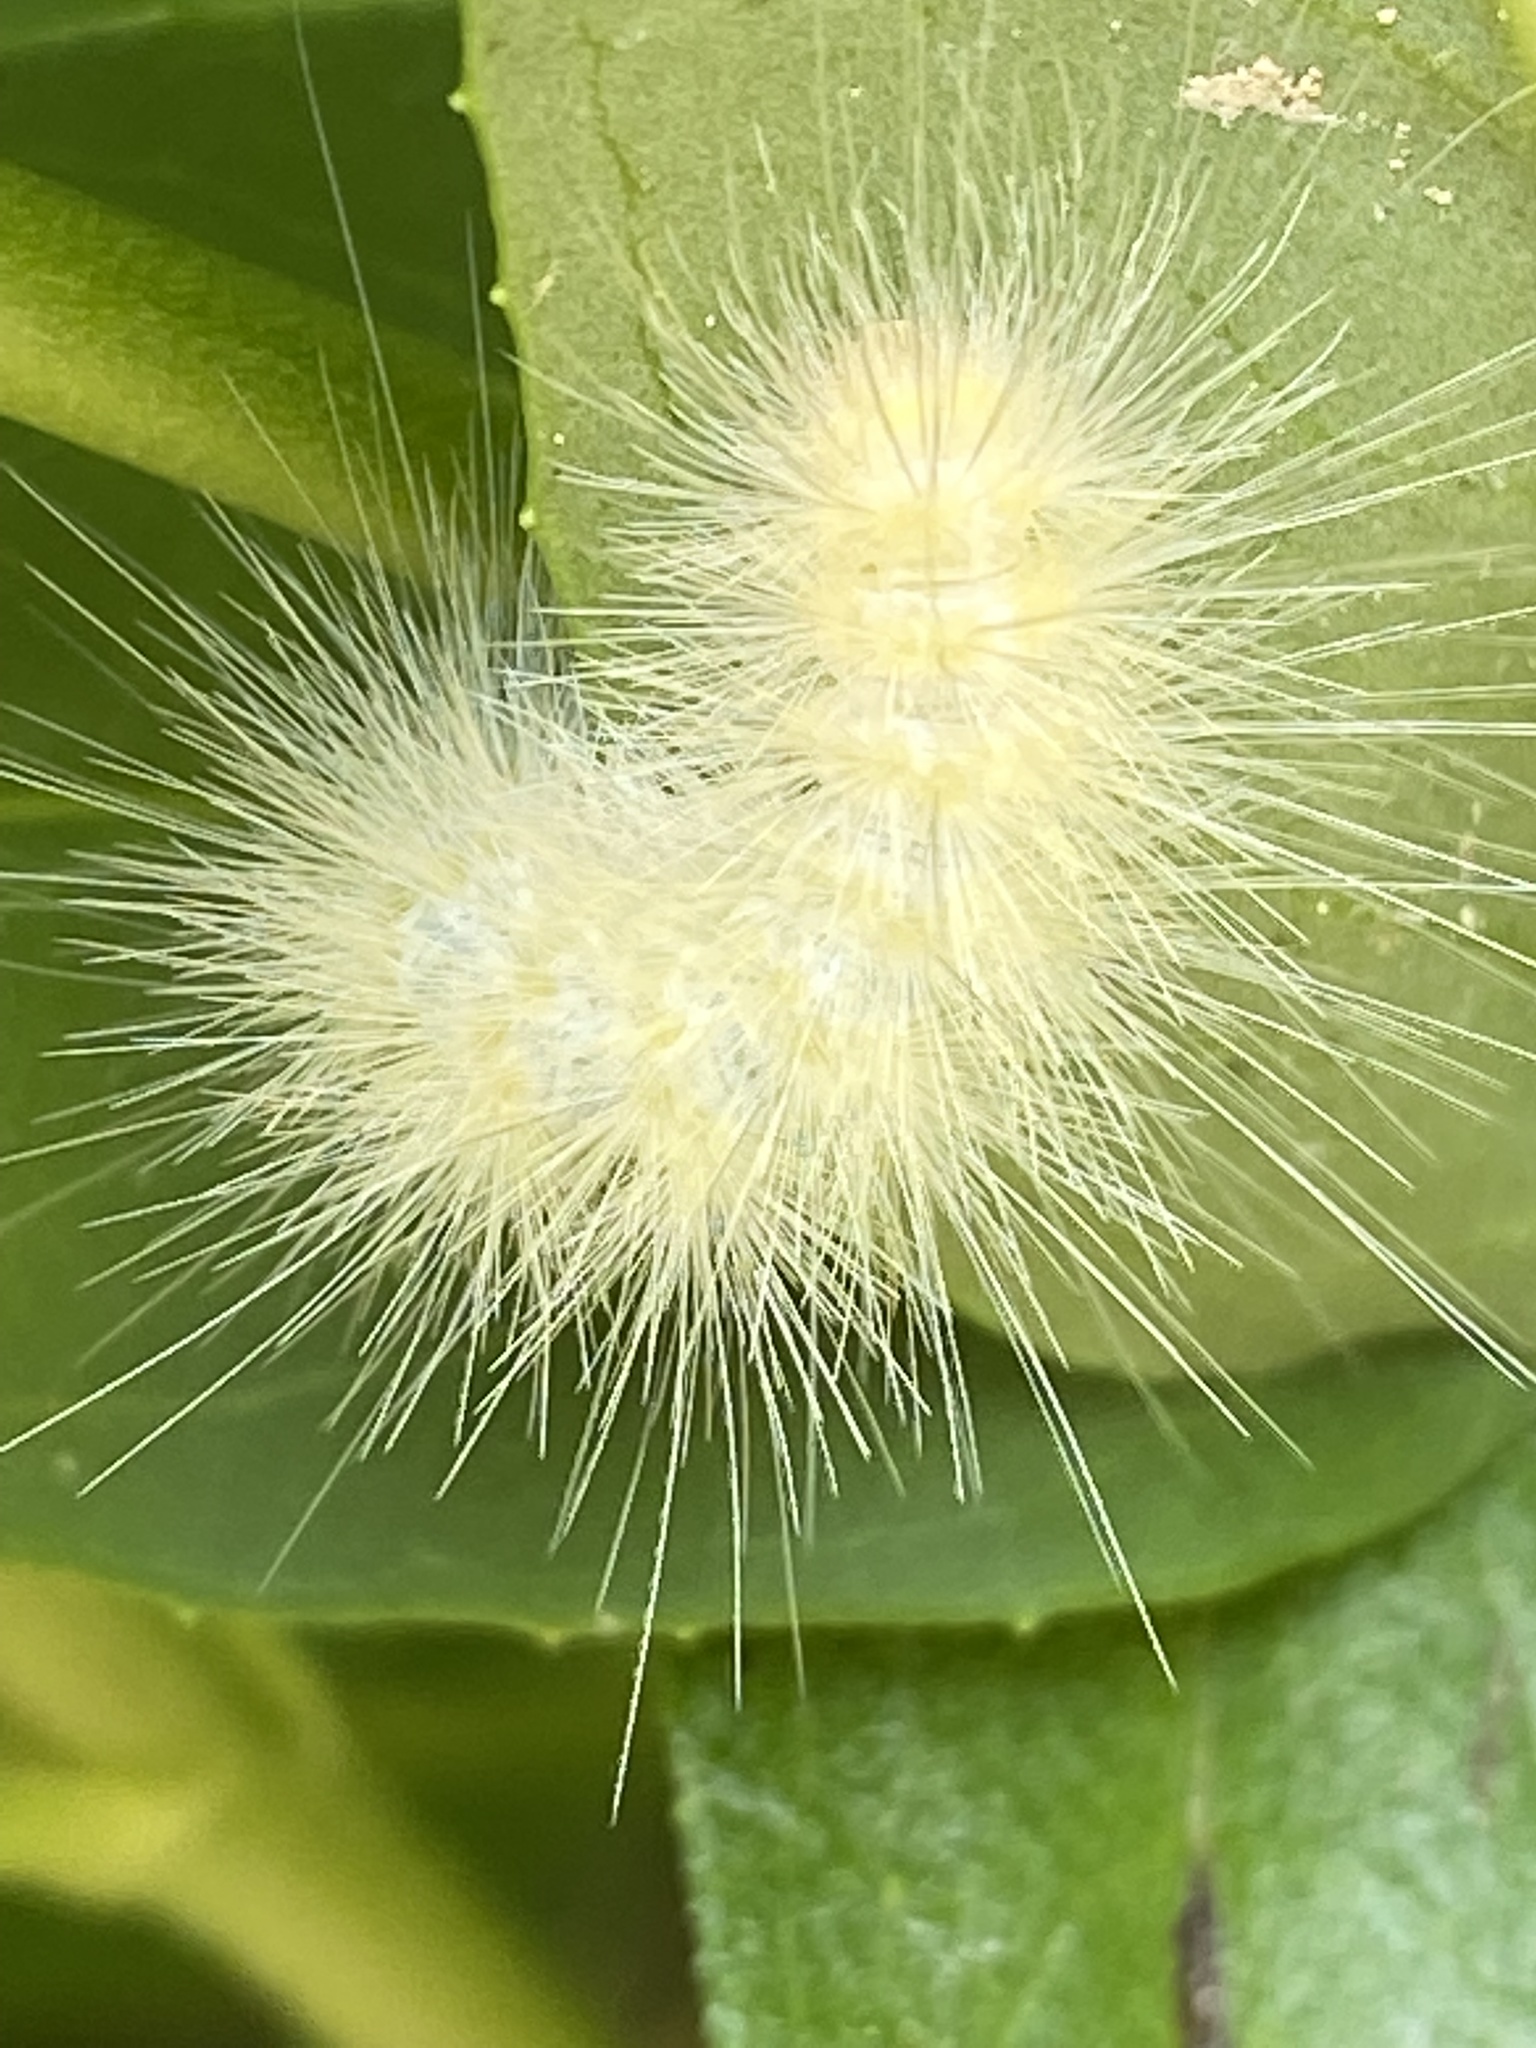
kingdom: Animalia
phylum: Arthropoda
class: Insecta
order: Lepidoptera
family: Erebidae
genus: Spilosoma
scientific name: Spilosoma virginica
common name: Virginia tiger moth
